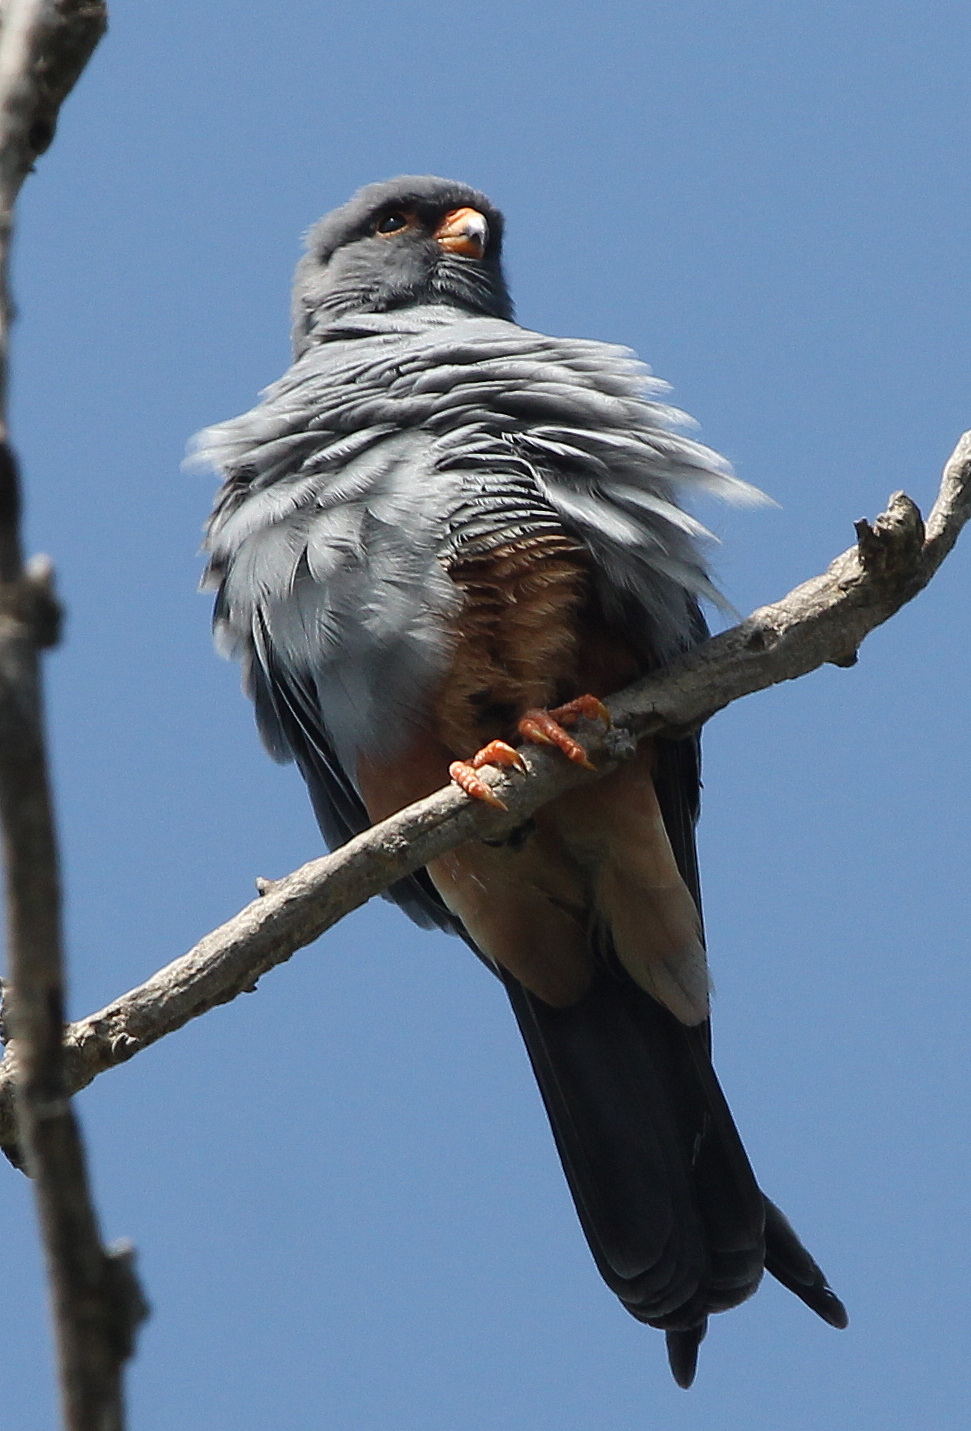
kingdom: Animalia
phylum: Chordata
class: Aves
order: Falconiformes
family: Falconidae
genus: Falco
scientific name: Falco vespertinus
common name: Red-footed falcon
